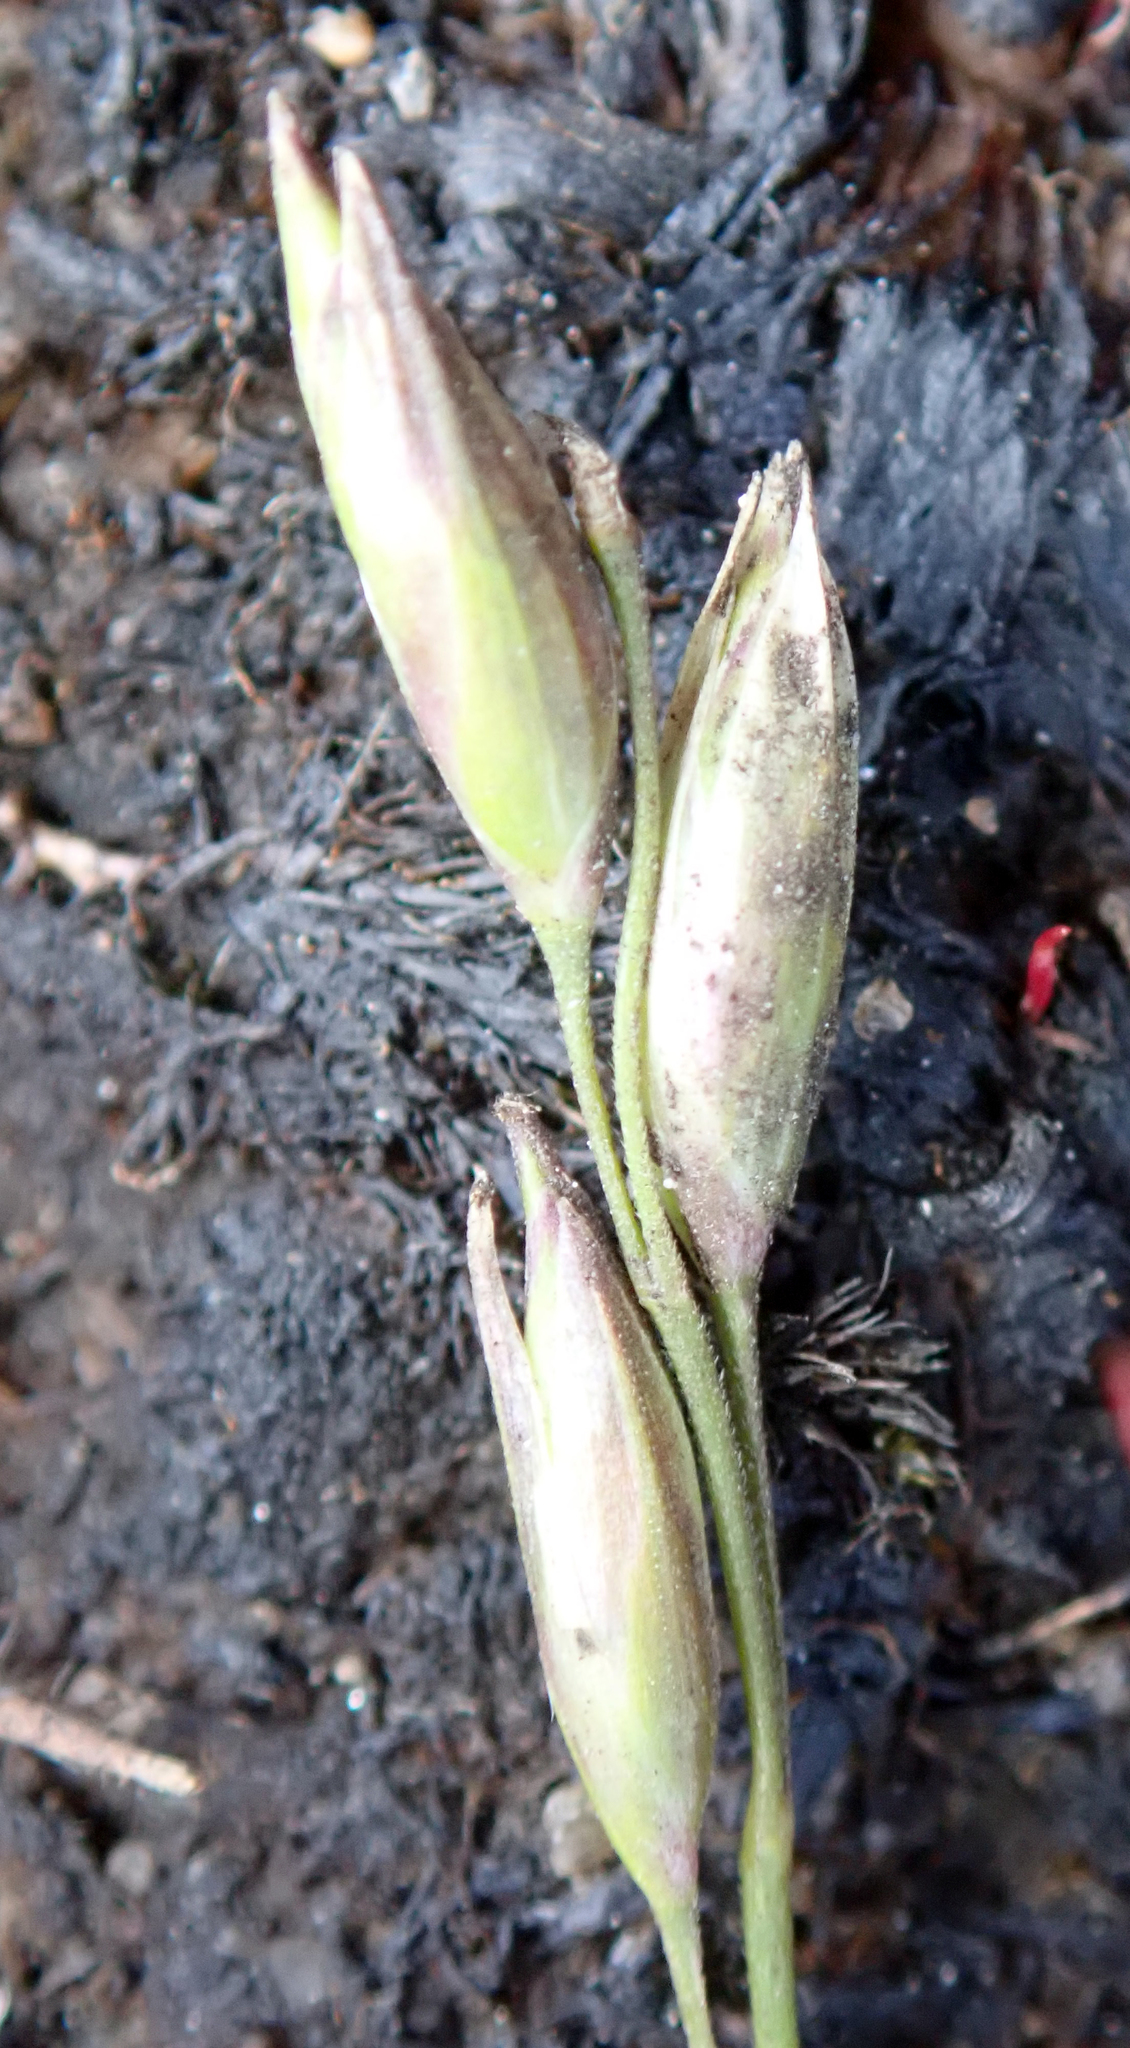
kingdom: Plantae
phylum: Tracheophyta
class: Liliopsida
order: Poales
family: Poaceae
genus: Danthonia
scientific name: Danthonia decumbens
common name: Common heathgrass
